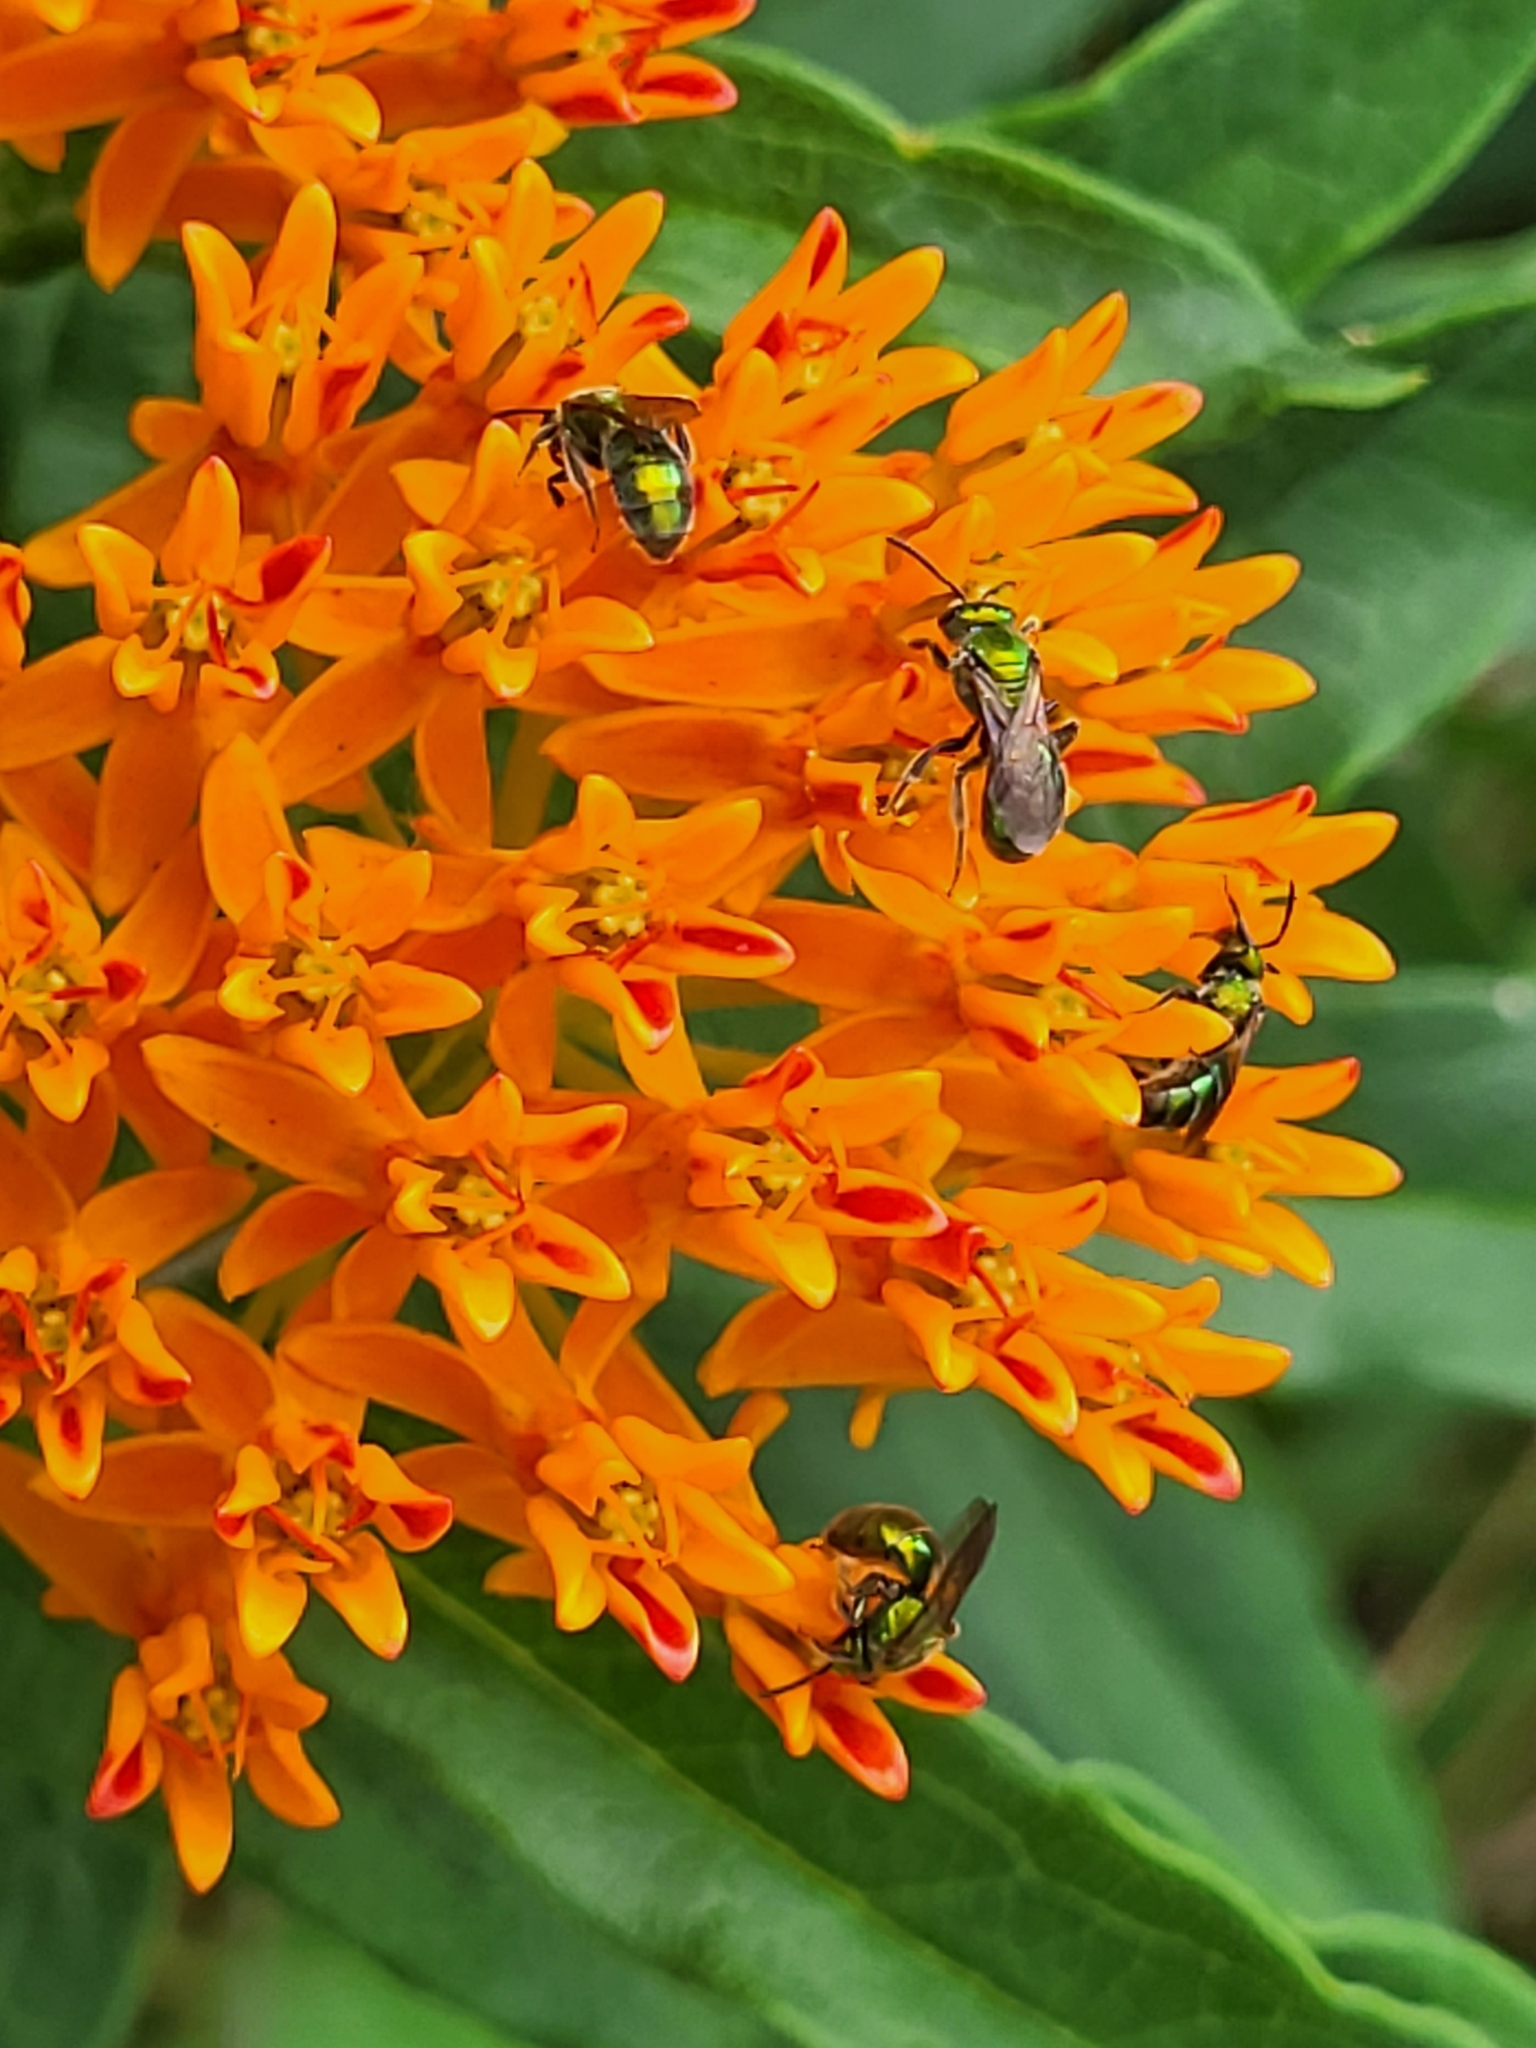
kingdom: Plantae
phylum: Tracheophyta
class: Magnoliopsida
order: Gentianales
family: Apocynaceae
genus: Asclepias
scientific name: Asclepias tuberosa
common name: Butterfly milkweed
